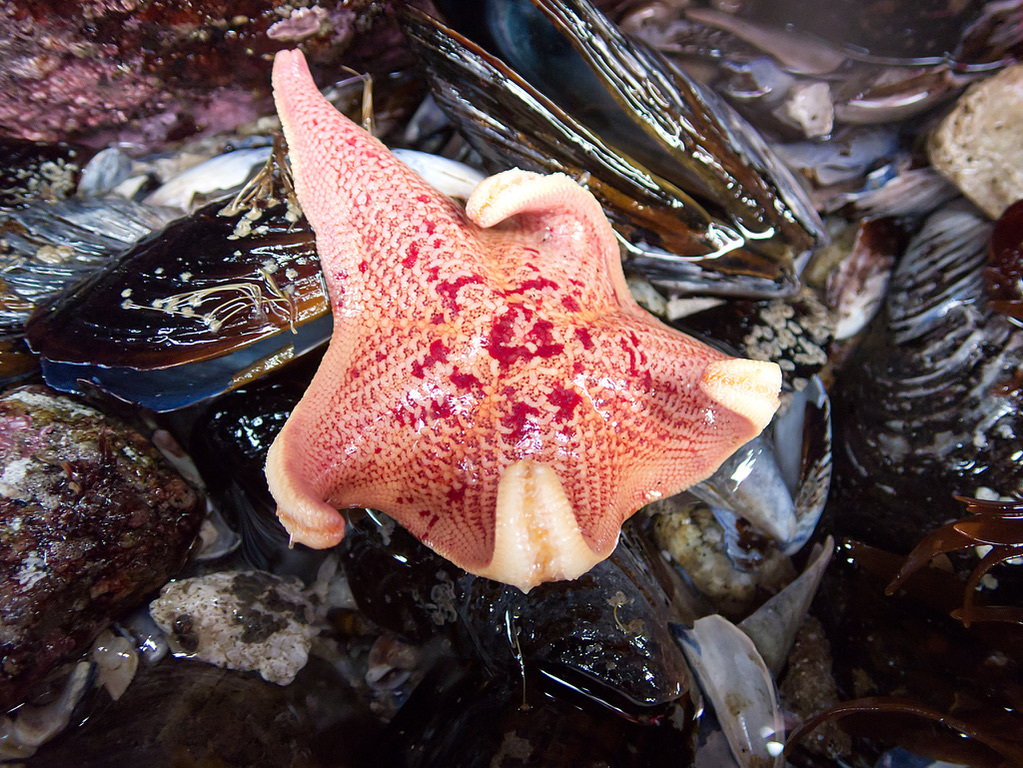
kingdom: Animalia
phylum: Echinodermata
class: Asteroidea
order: Valvatida
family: Asterinidae
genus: Patiria
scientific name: Patiria miniata
